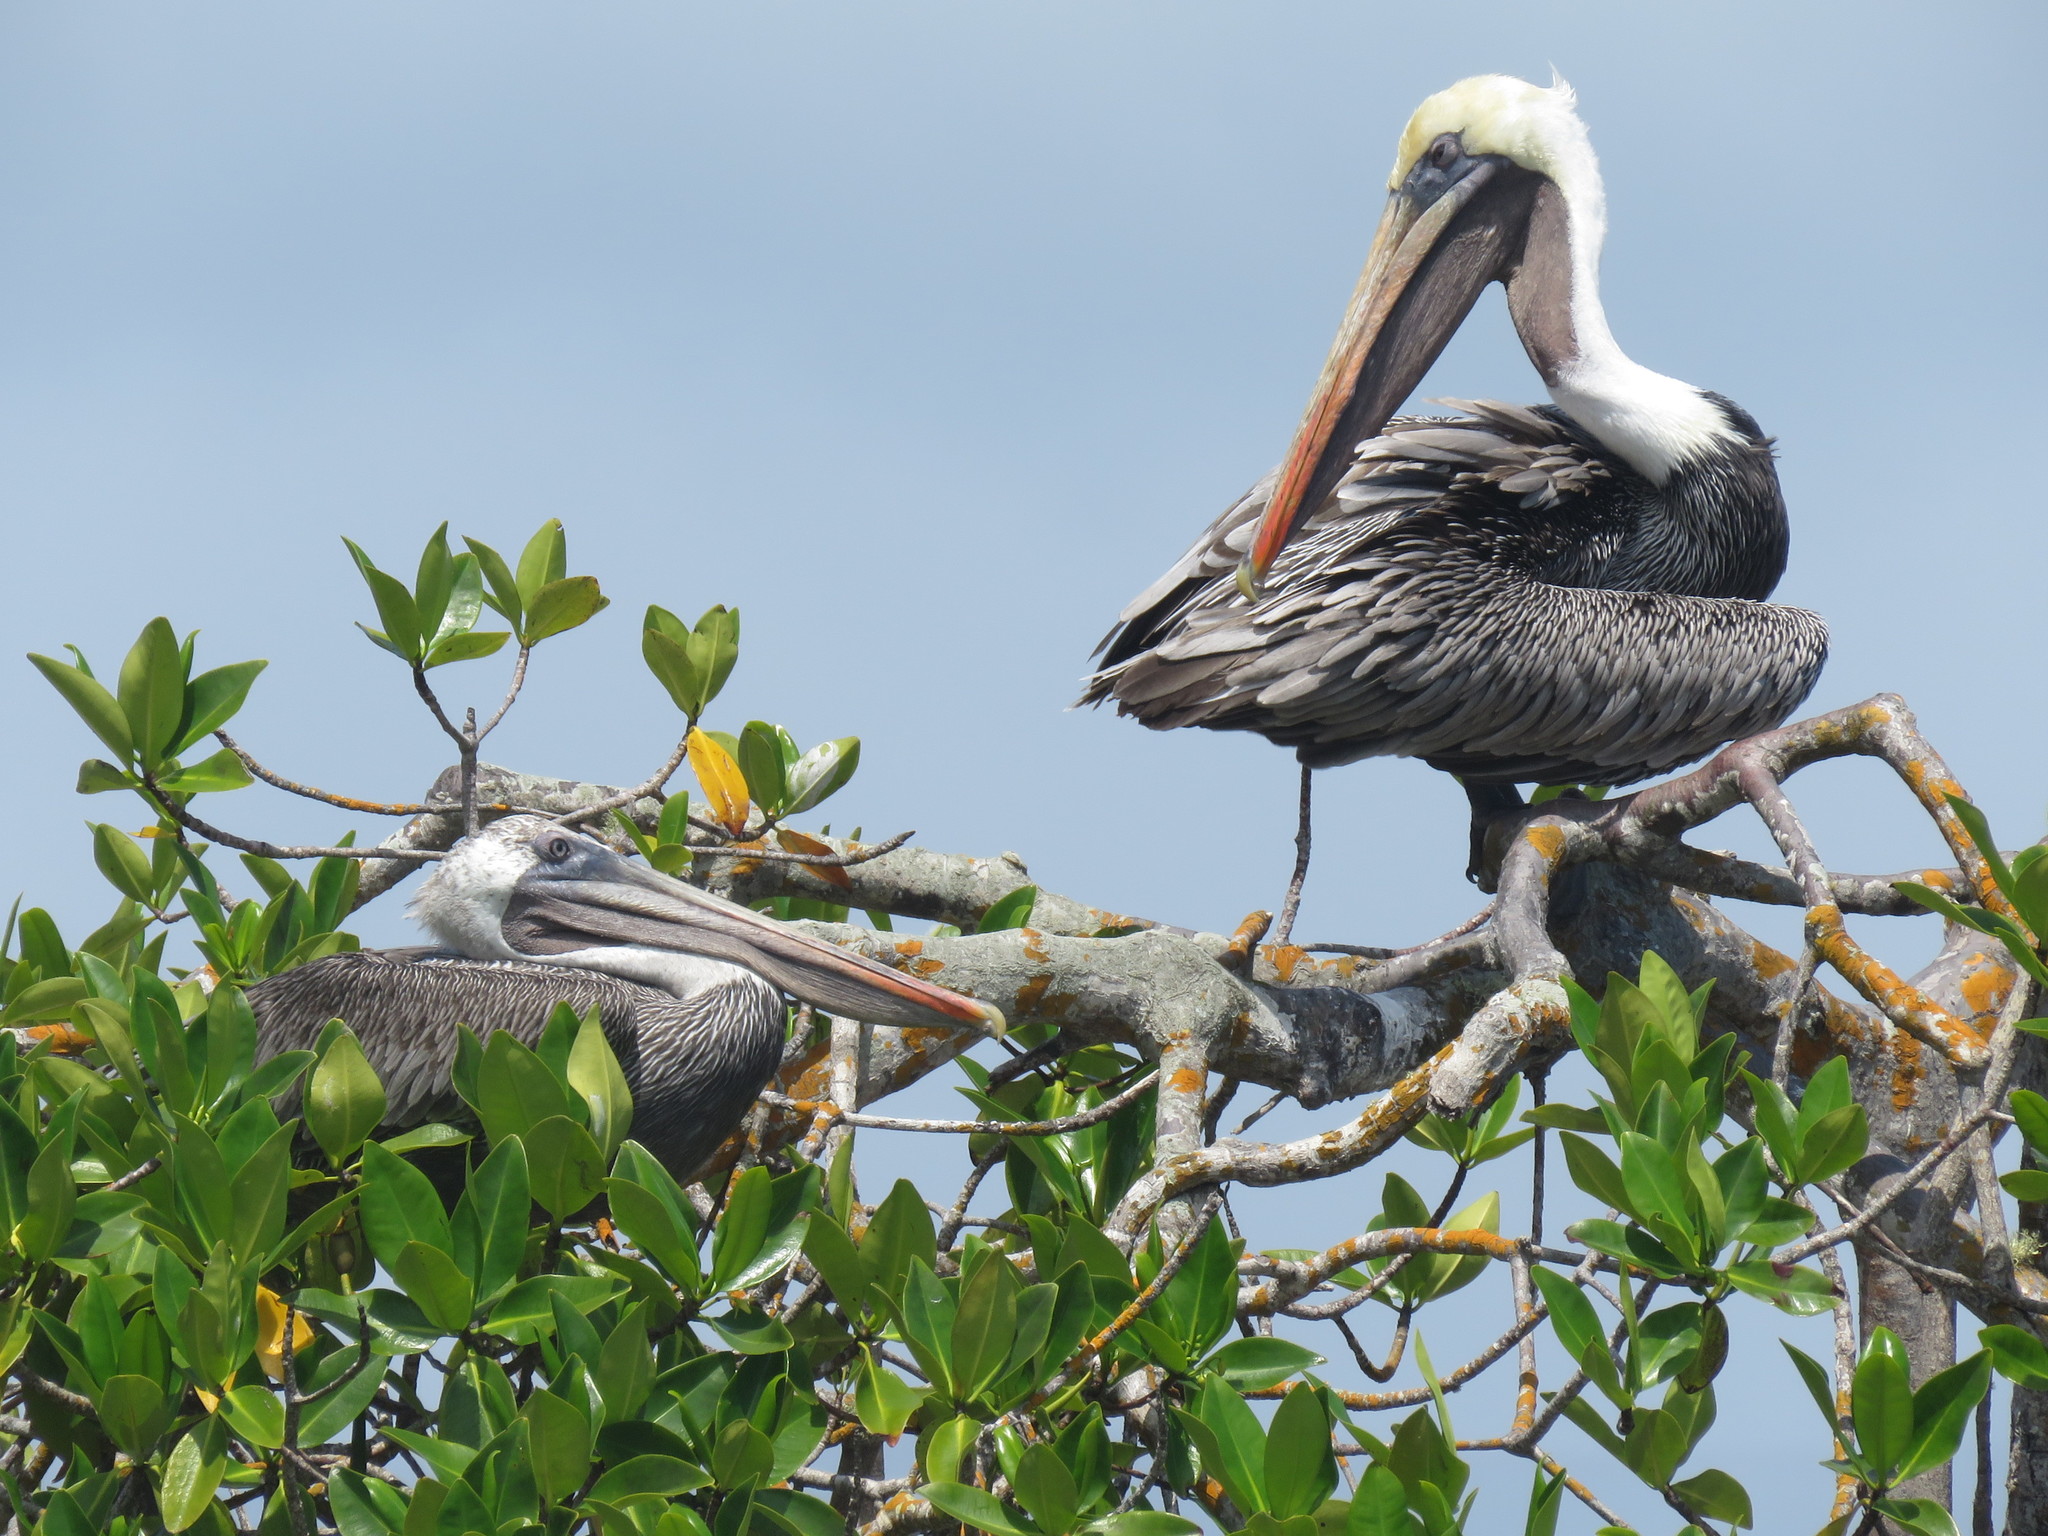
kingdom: Animalia
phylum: Chordata
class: Aves
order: Pelecaniformes
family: Pelecanidae
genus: Pelecanus
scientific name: Pelecanus occidentalis
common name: Brown pelican
